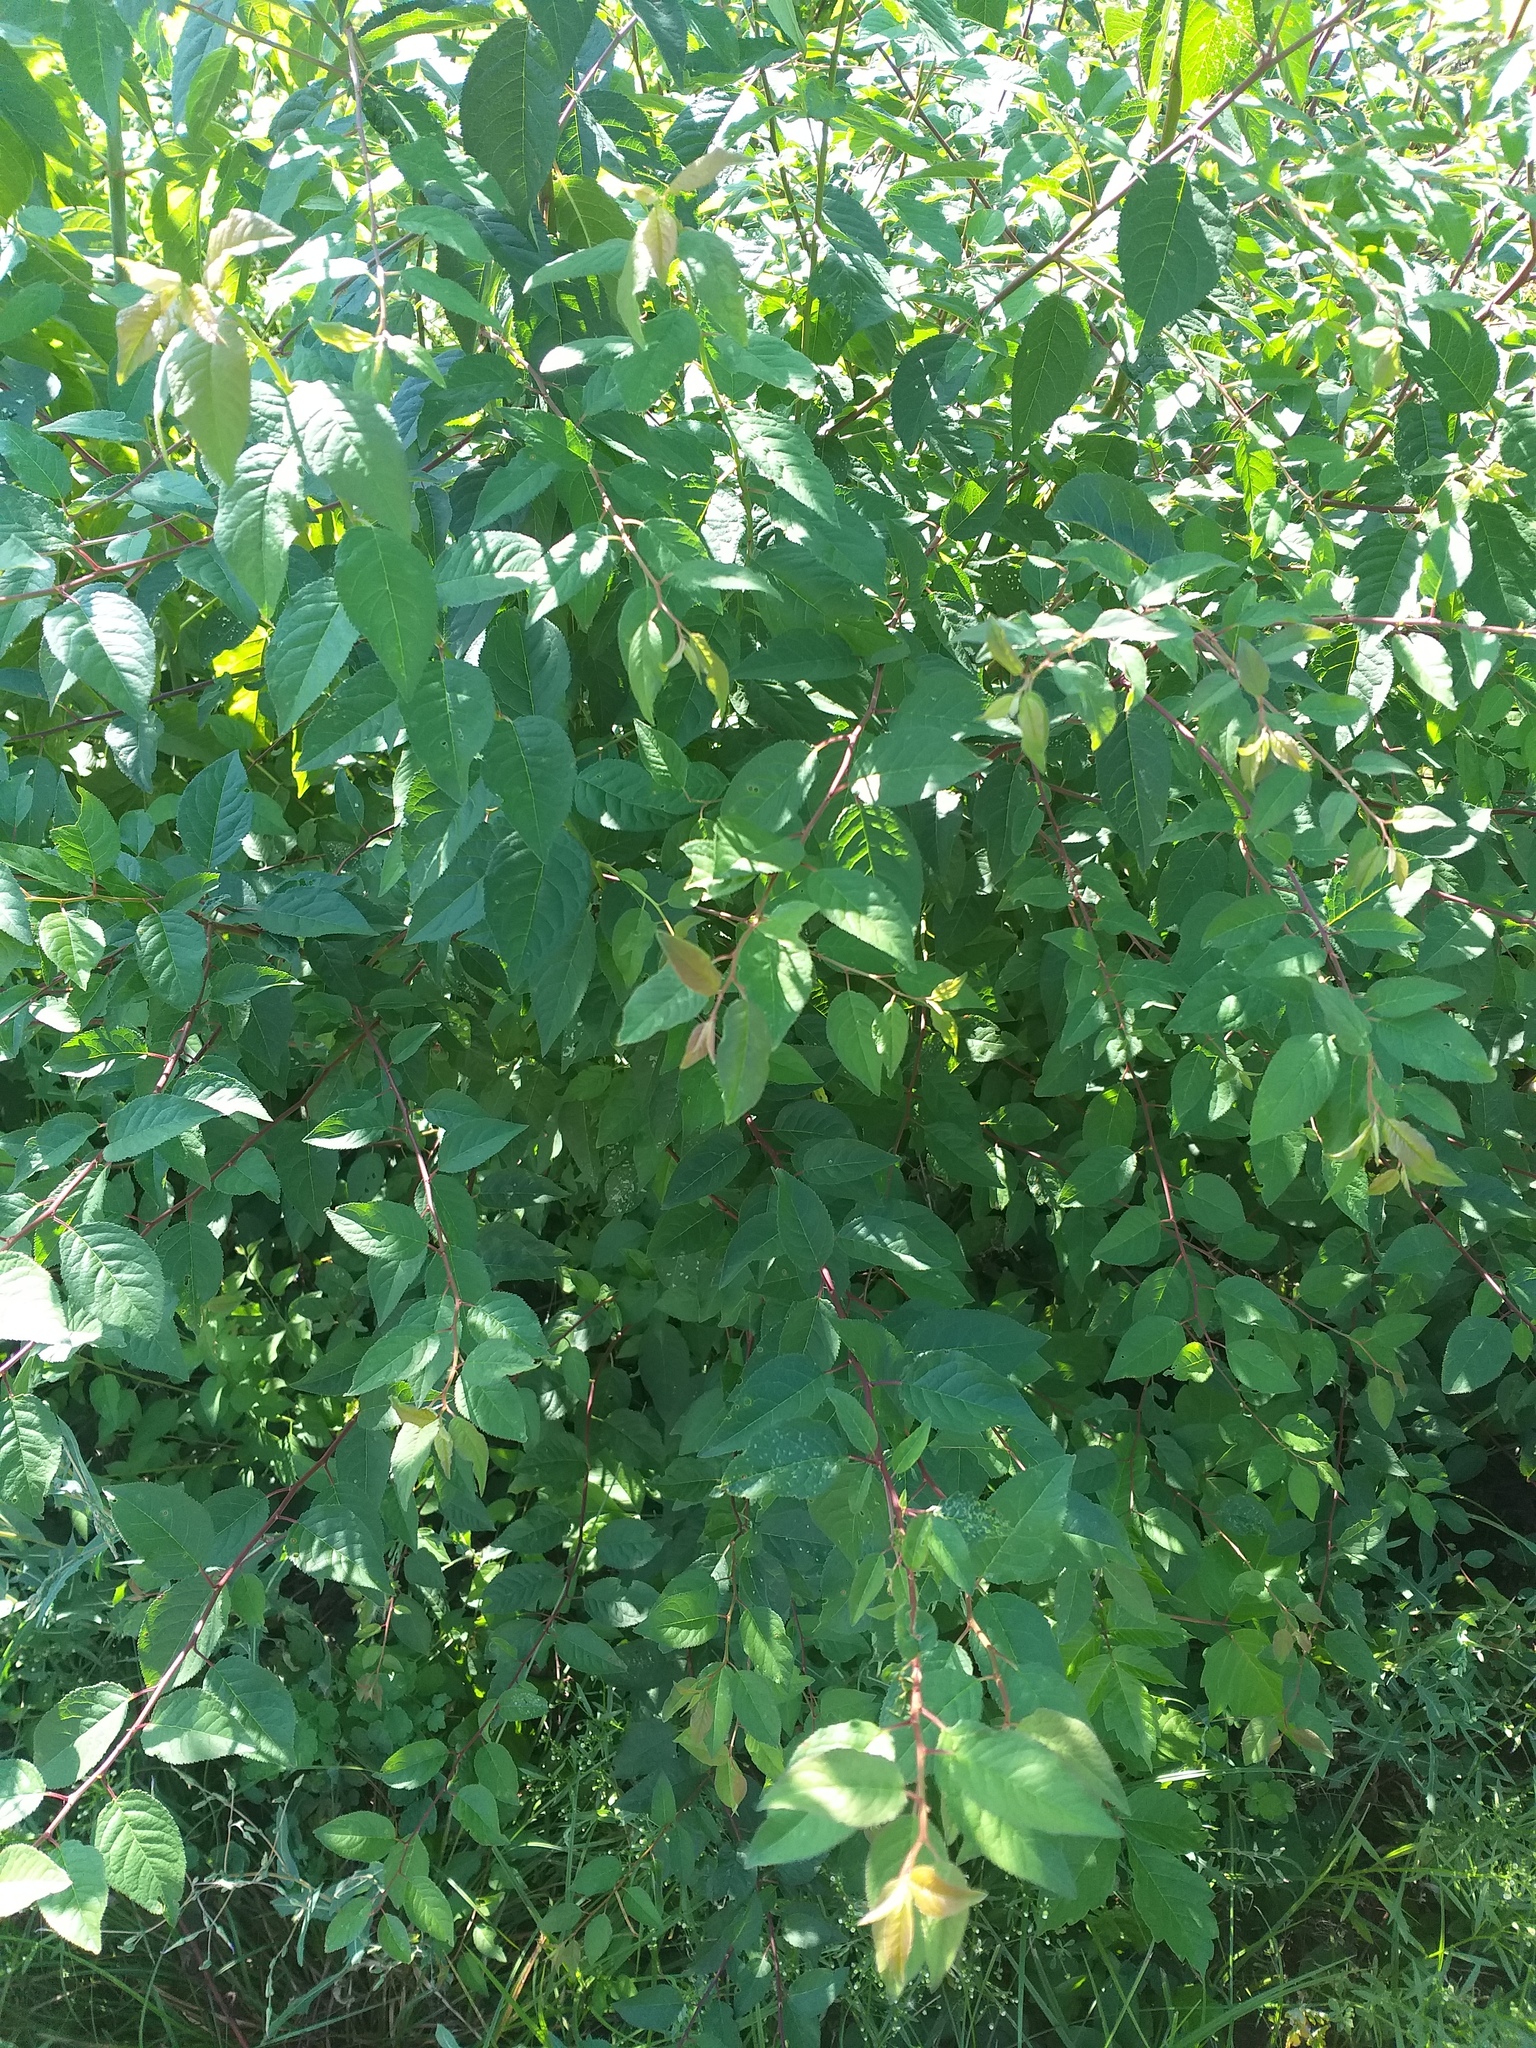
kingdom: Plantae
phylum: Tracheophyta
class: Magnoliopsida
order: Rosales
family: Rosaceae
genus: Prunus
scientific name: Prunus cerasifera
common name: Cherry plum
